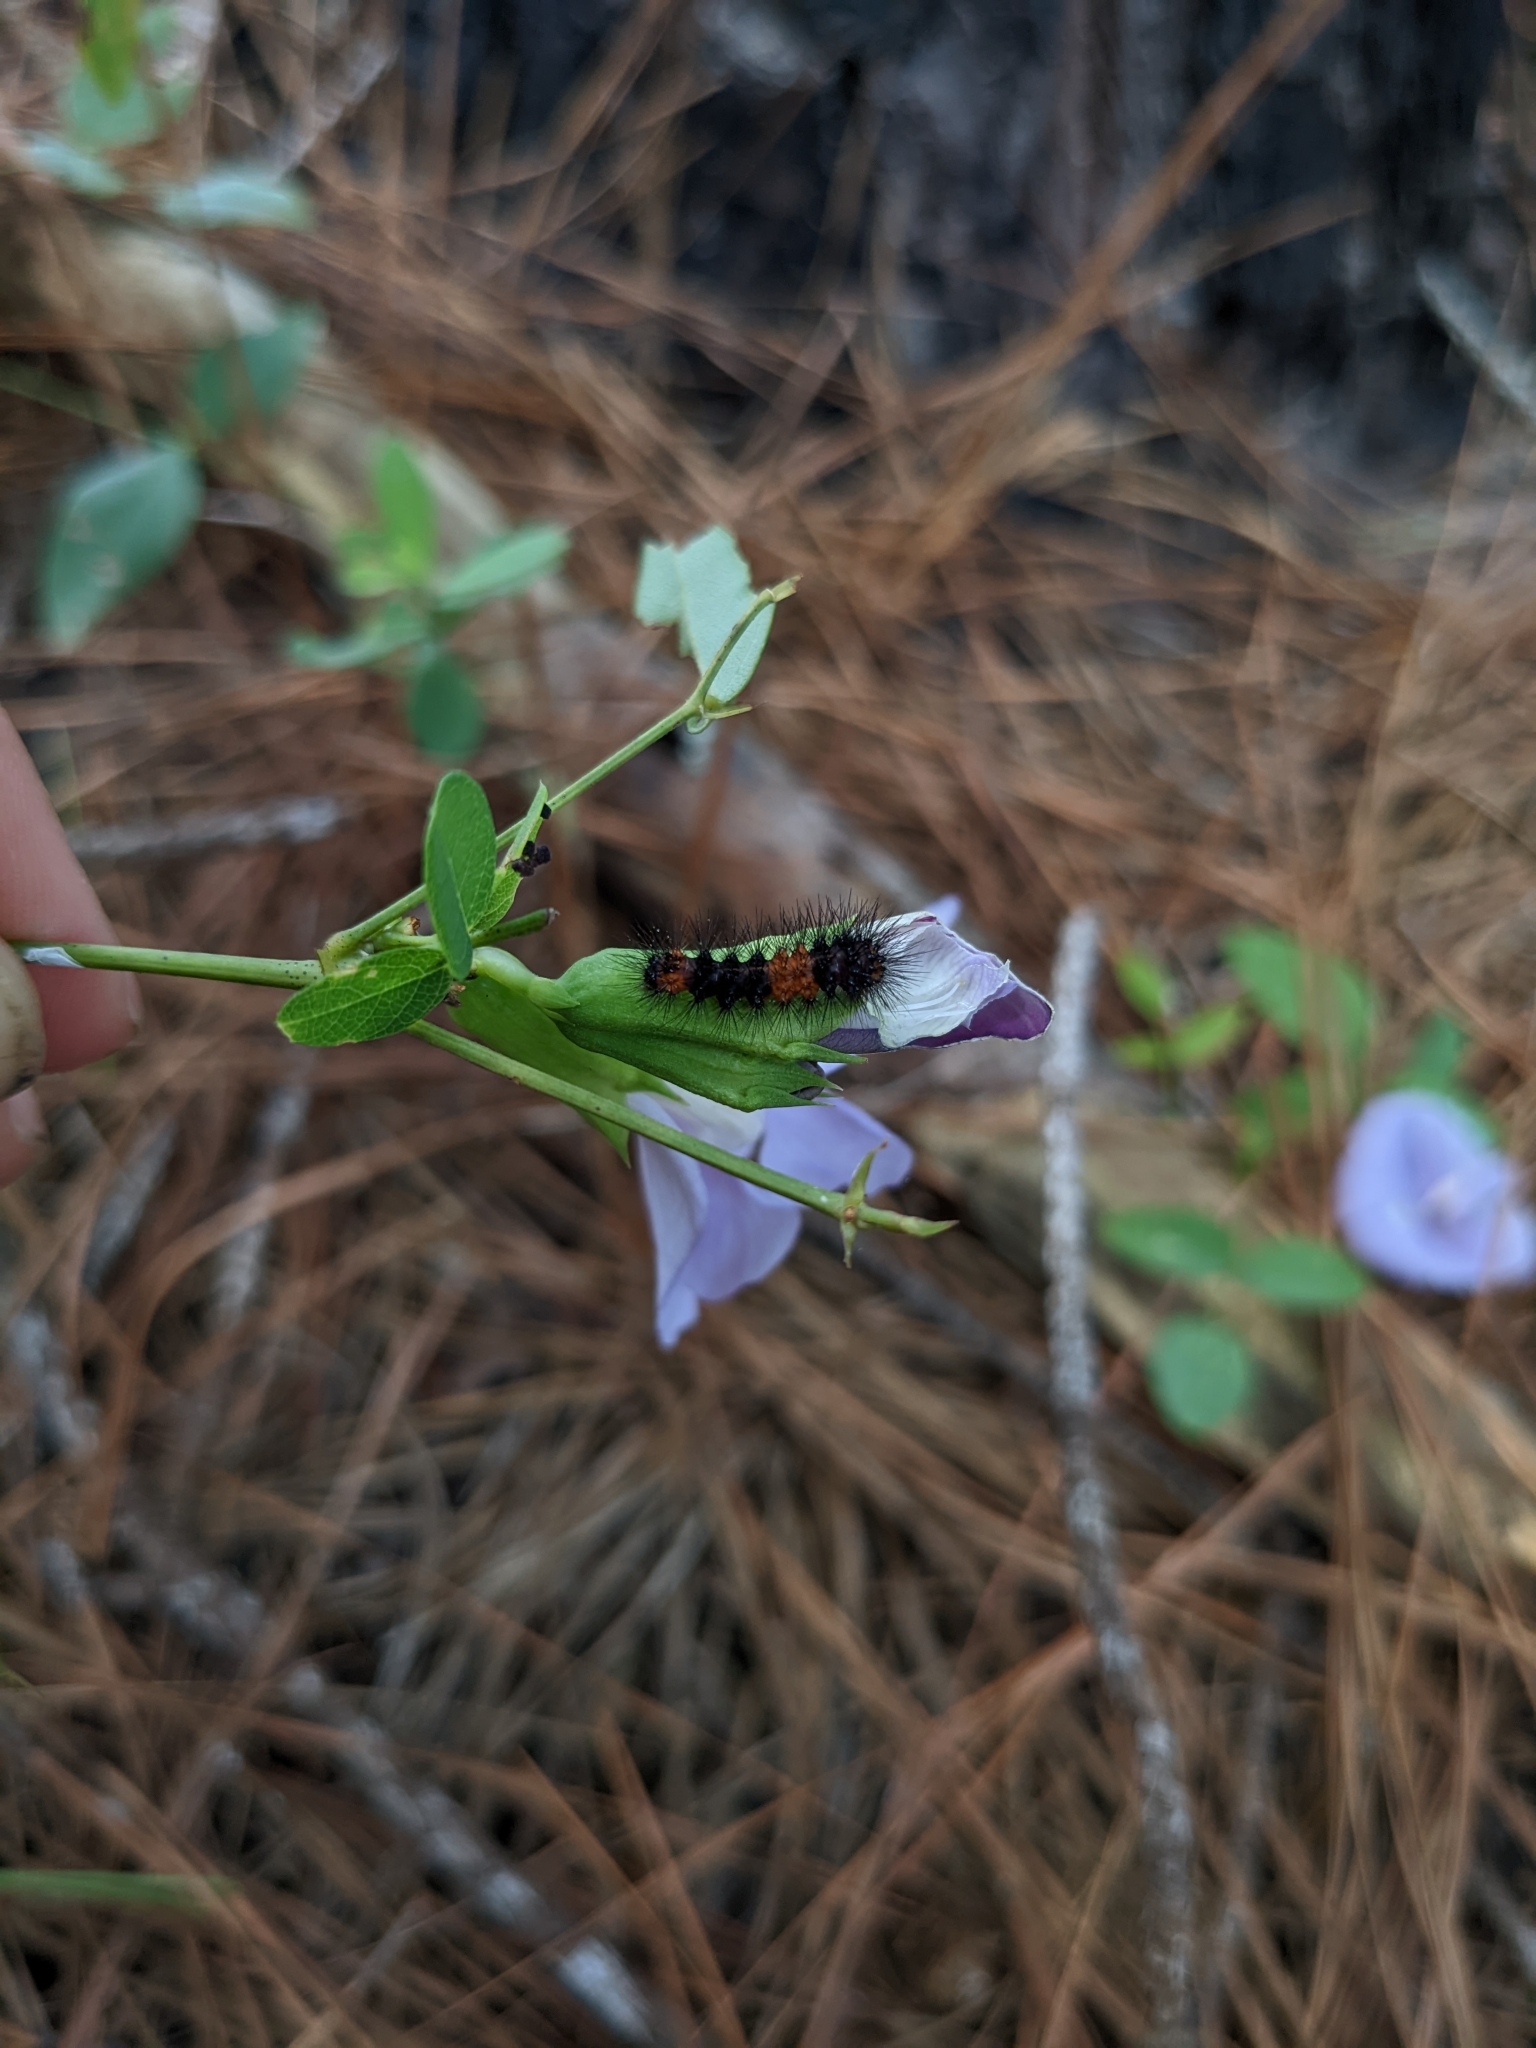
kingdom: Animalia
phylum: Arthropoda
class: Insecta
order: Lepidoptera
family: Erebidae
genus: Hypercompe
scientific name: Hypercompe scribonia
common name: Giant leopard moth
